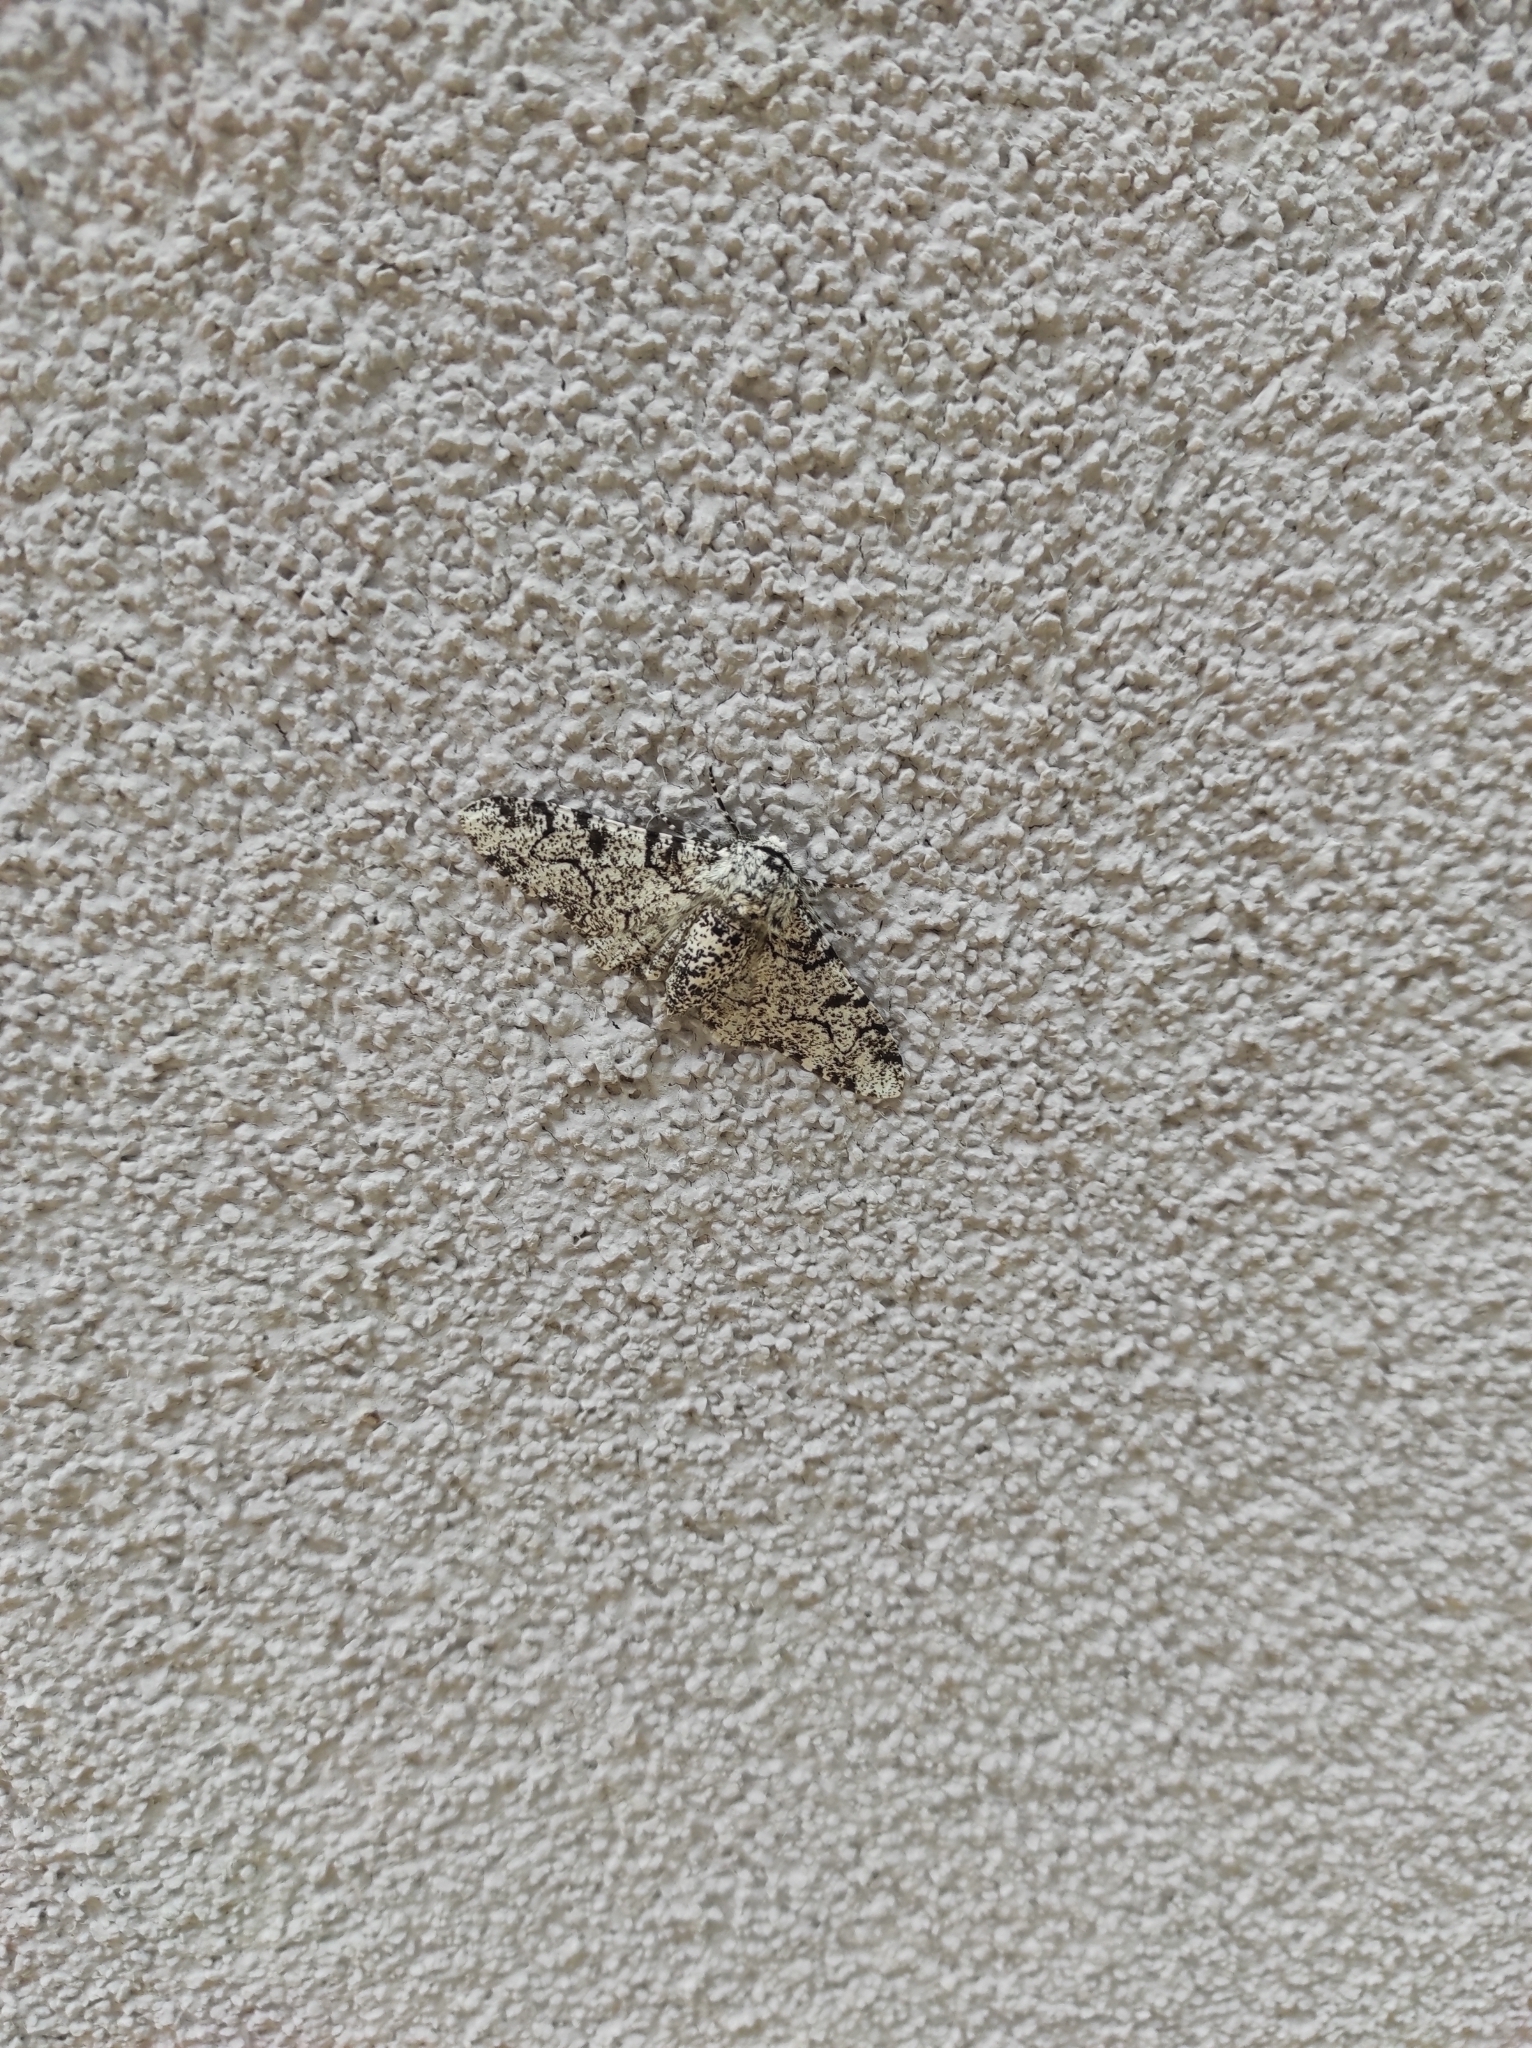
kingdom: Animalia
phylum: Arthropoda
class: Insecta
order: Lepidoptera
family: Geometridae
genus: Biston
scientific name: Biston betularia
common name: Peppered moth
